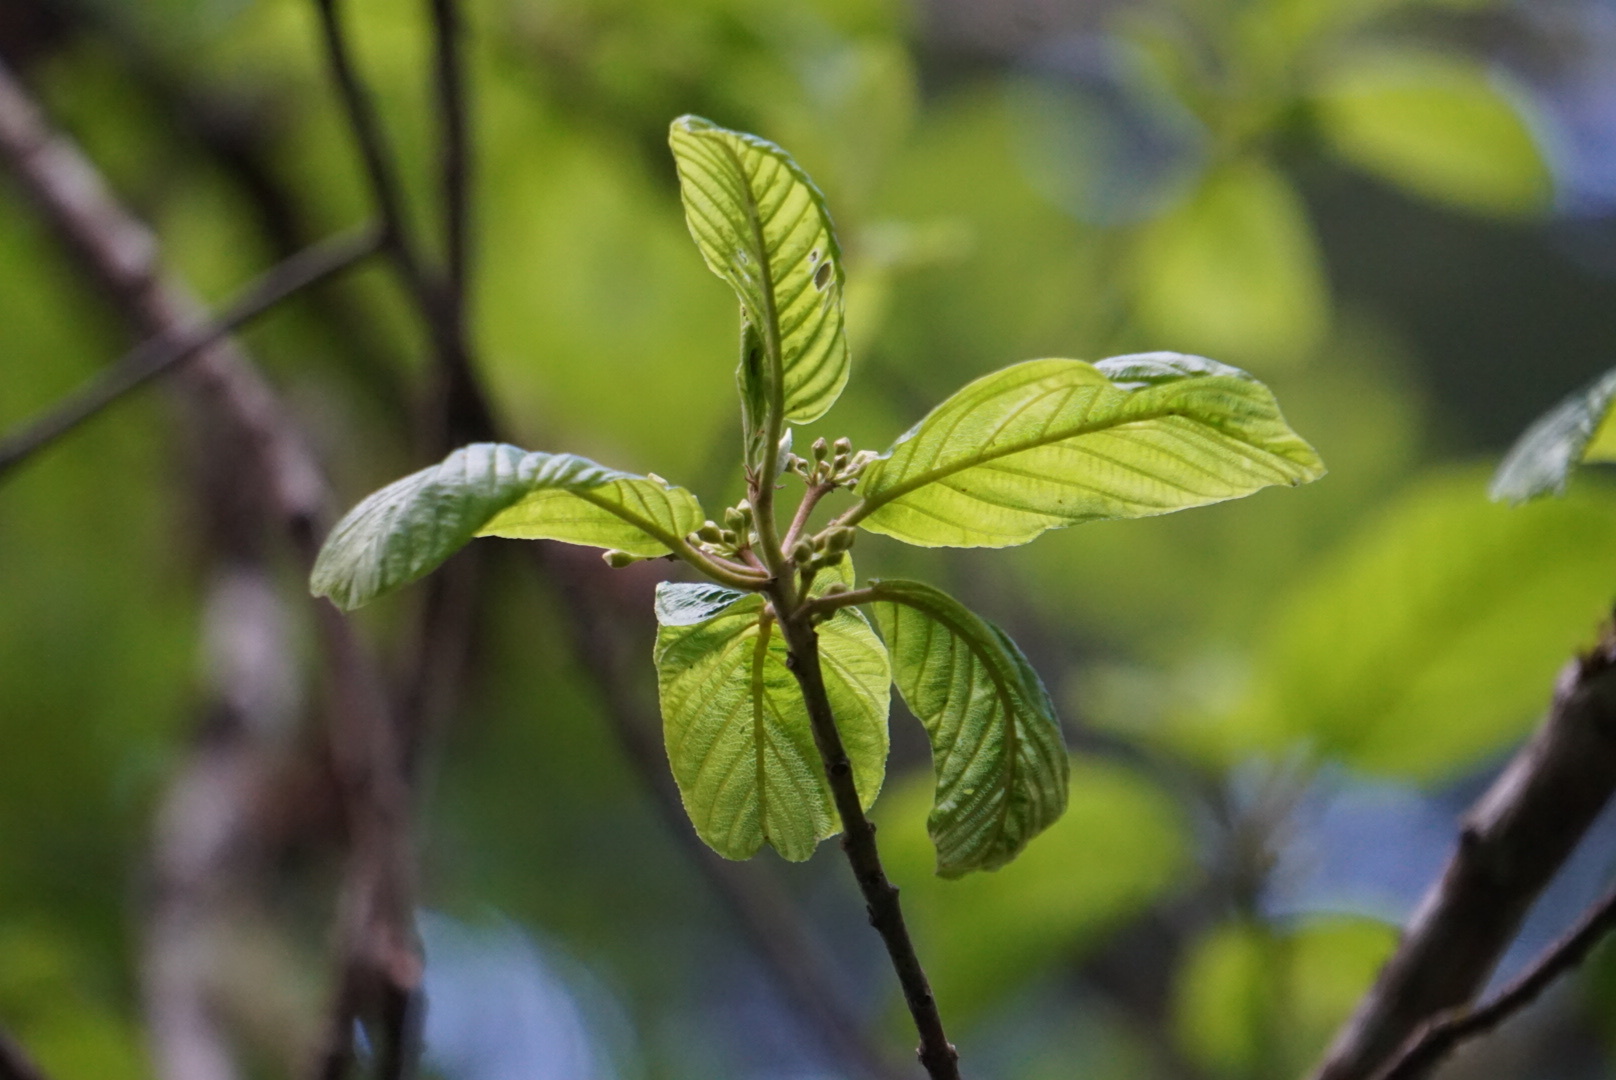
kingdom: Plantae
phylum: Tracheophyta
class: Magnoliopsida
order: Rosales
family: Rhamnaceae
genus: Frangula
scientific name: Frangula purshiana
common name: Cascara buckthorn
